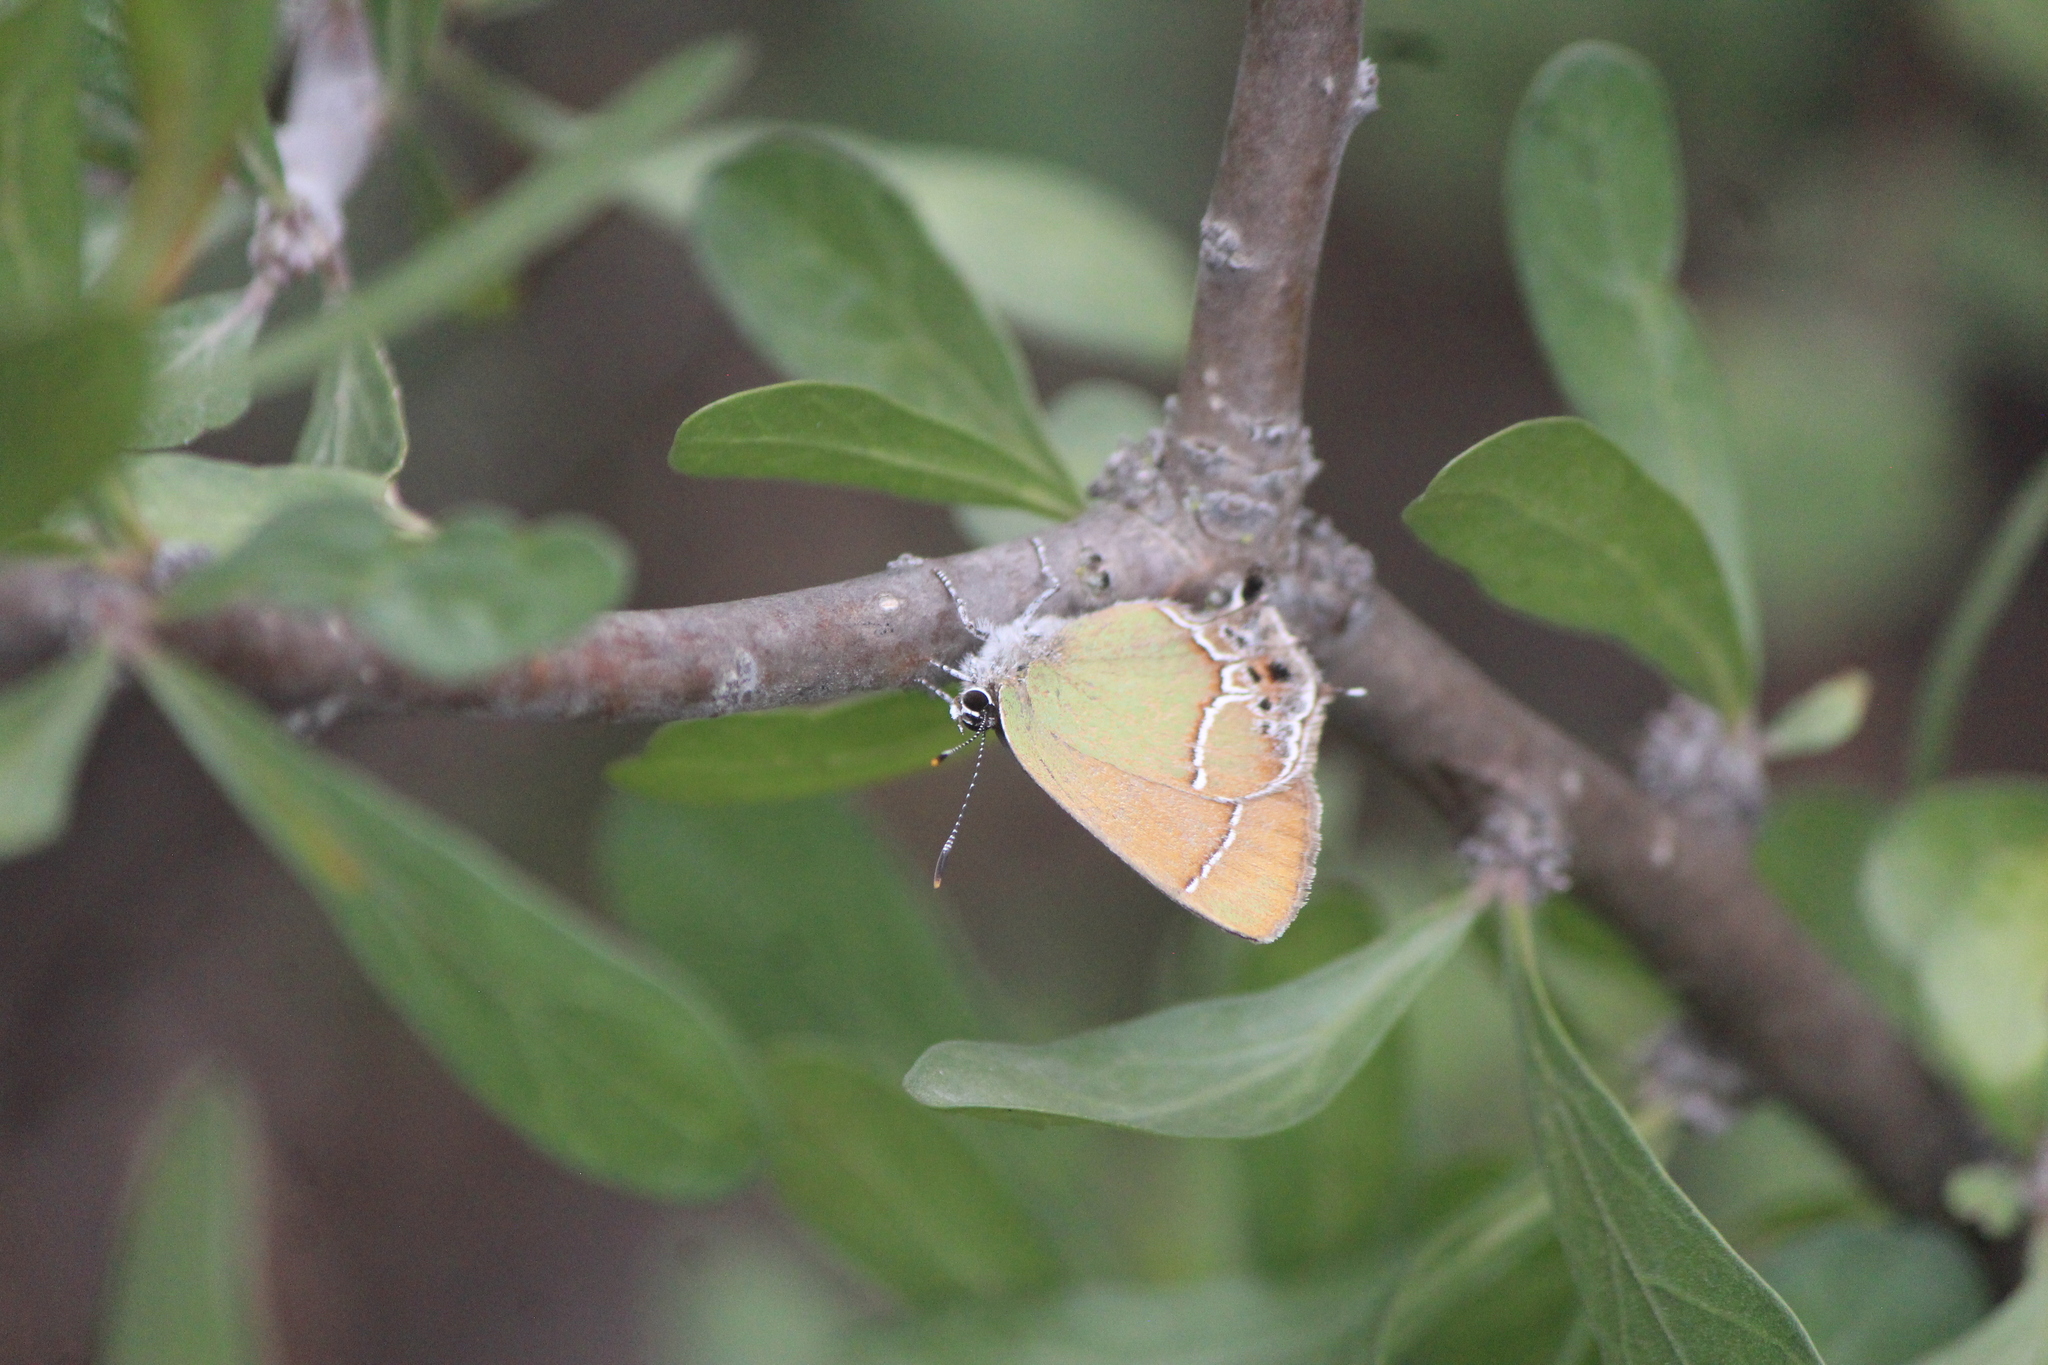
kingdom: Animalia
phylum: Arthropoda
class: Insecta
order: Lepidoptera
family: Lycaenidae
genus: Xamia
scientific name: Xamia xami
